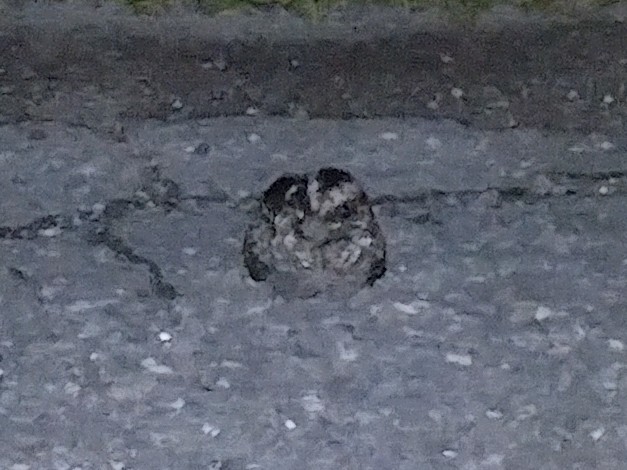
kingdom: Animalia
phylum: Chordata
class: Aves
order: Caprimulgiformes
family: Caprimulgidae
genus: Phalaenoptilus
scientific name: Phalaenoptilus nuttallii
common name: Common poorwill
